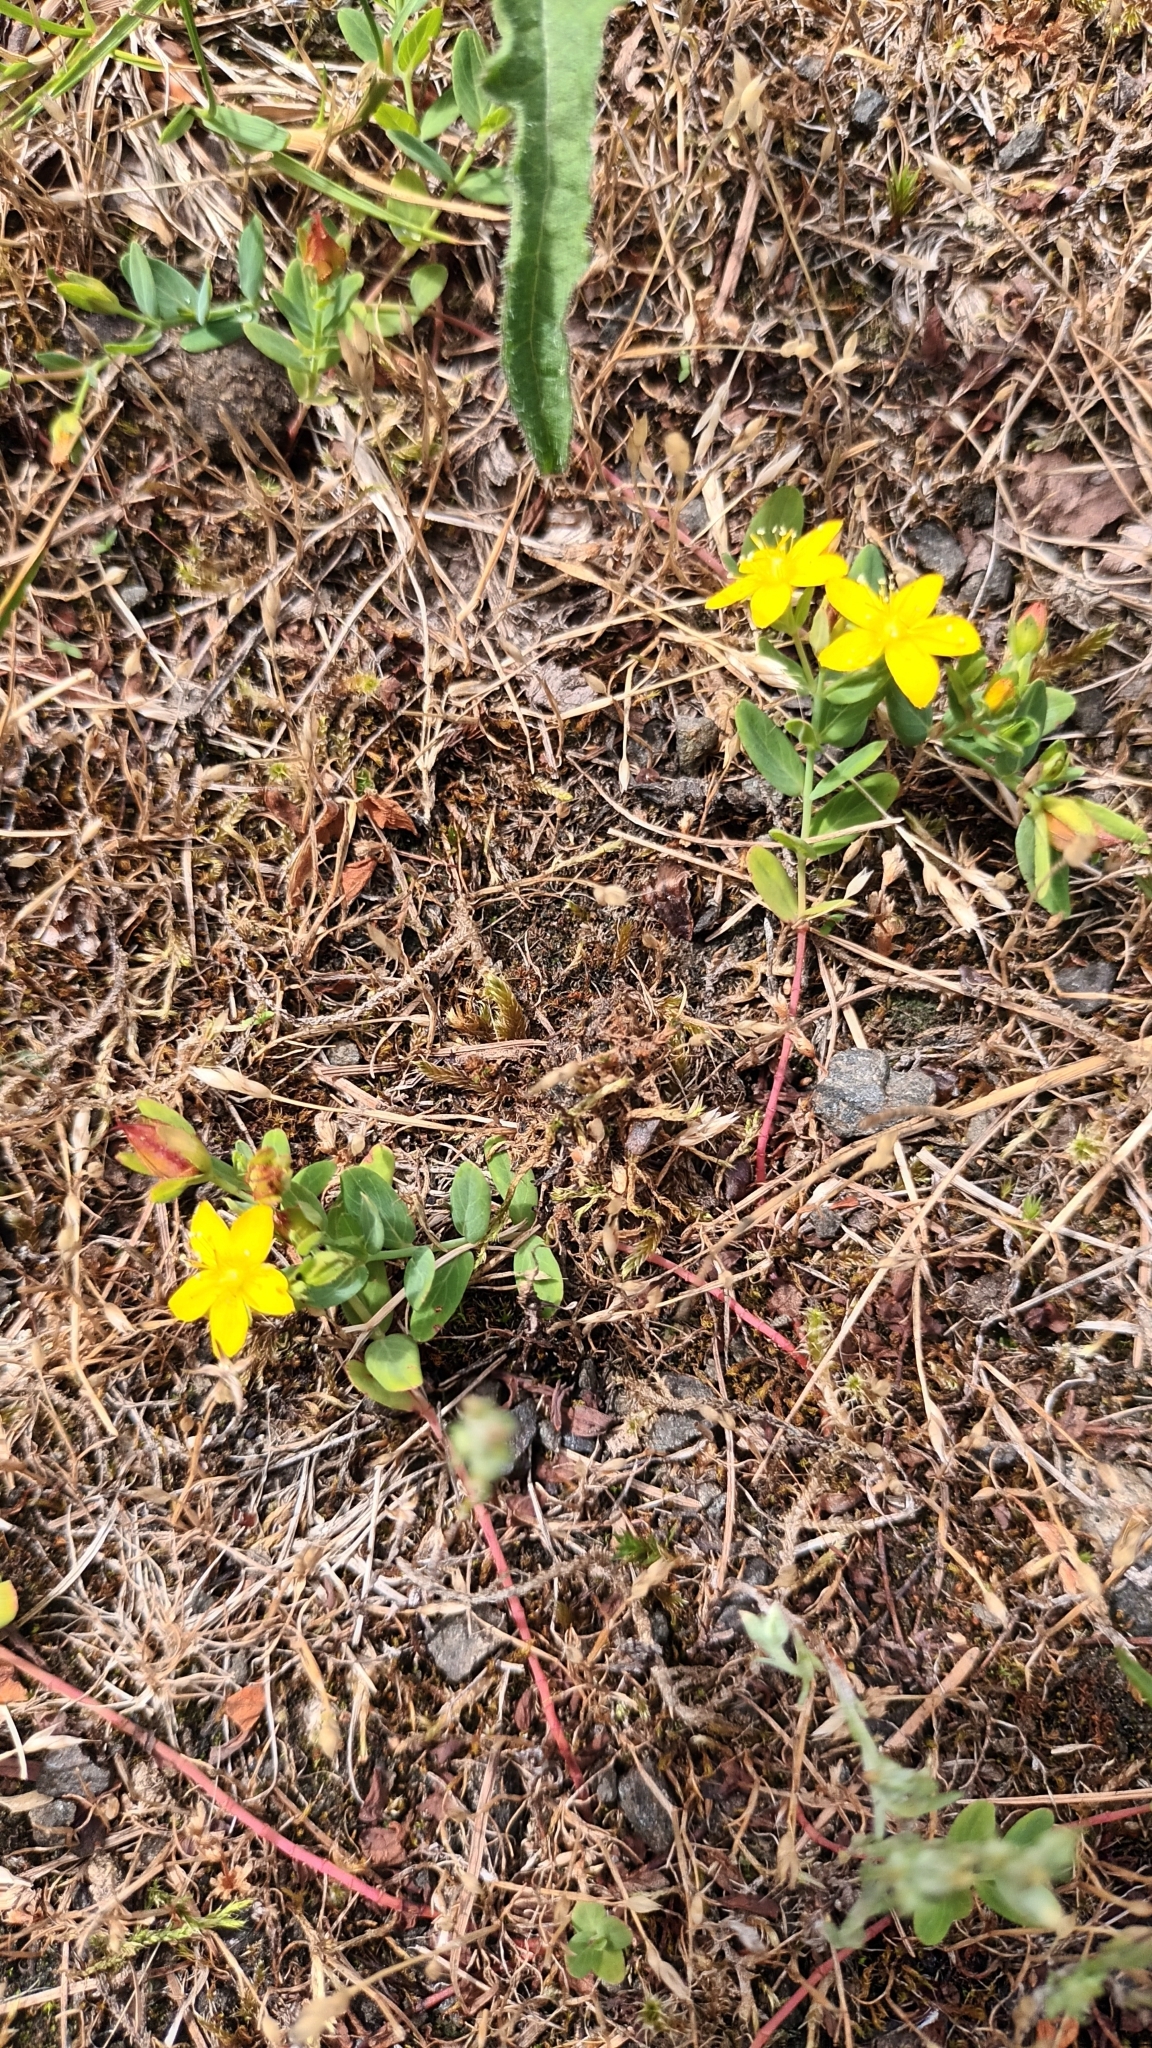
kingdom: Plantae
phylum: Tracheophyta
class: Magnoliopsida
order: Malpighiales
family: Hypericaceae
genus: Hypericum
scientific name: Hypericum humifusum
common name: Trailing st. john's-wort
